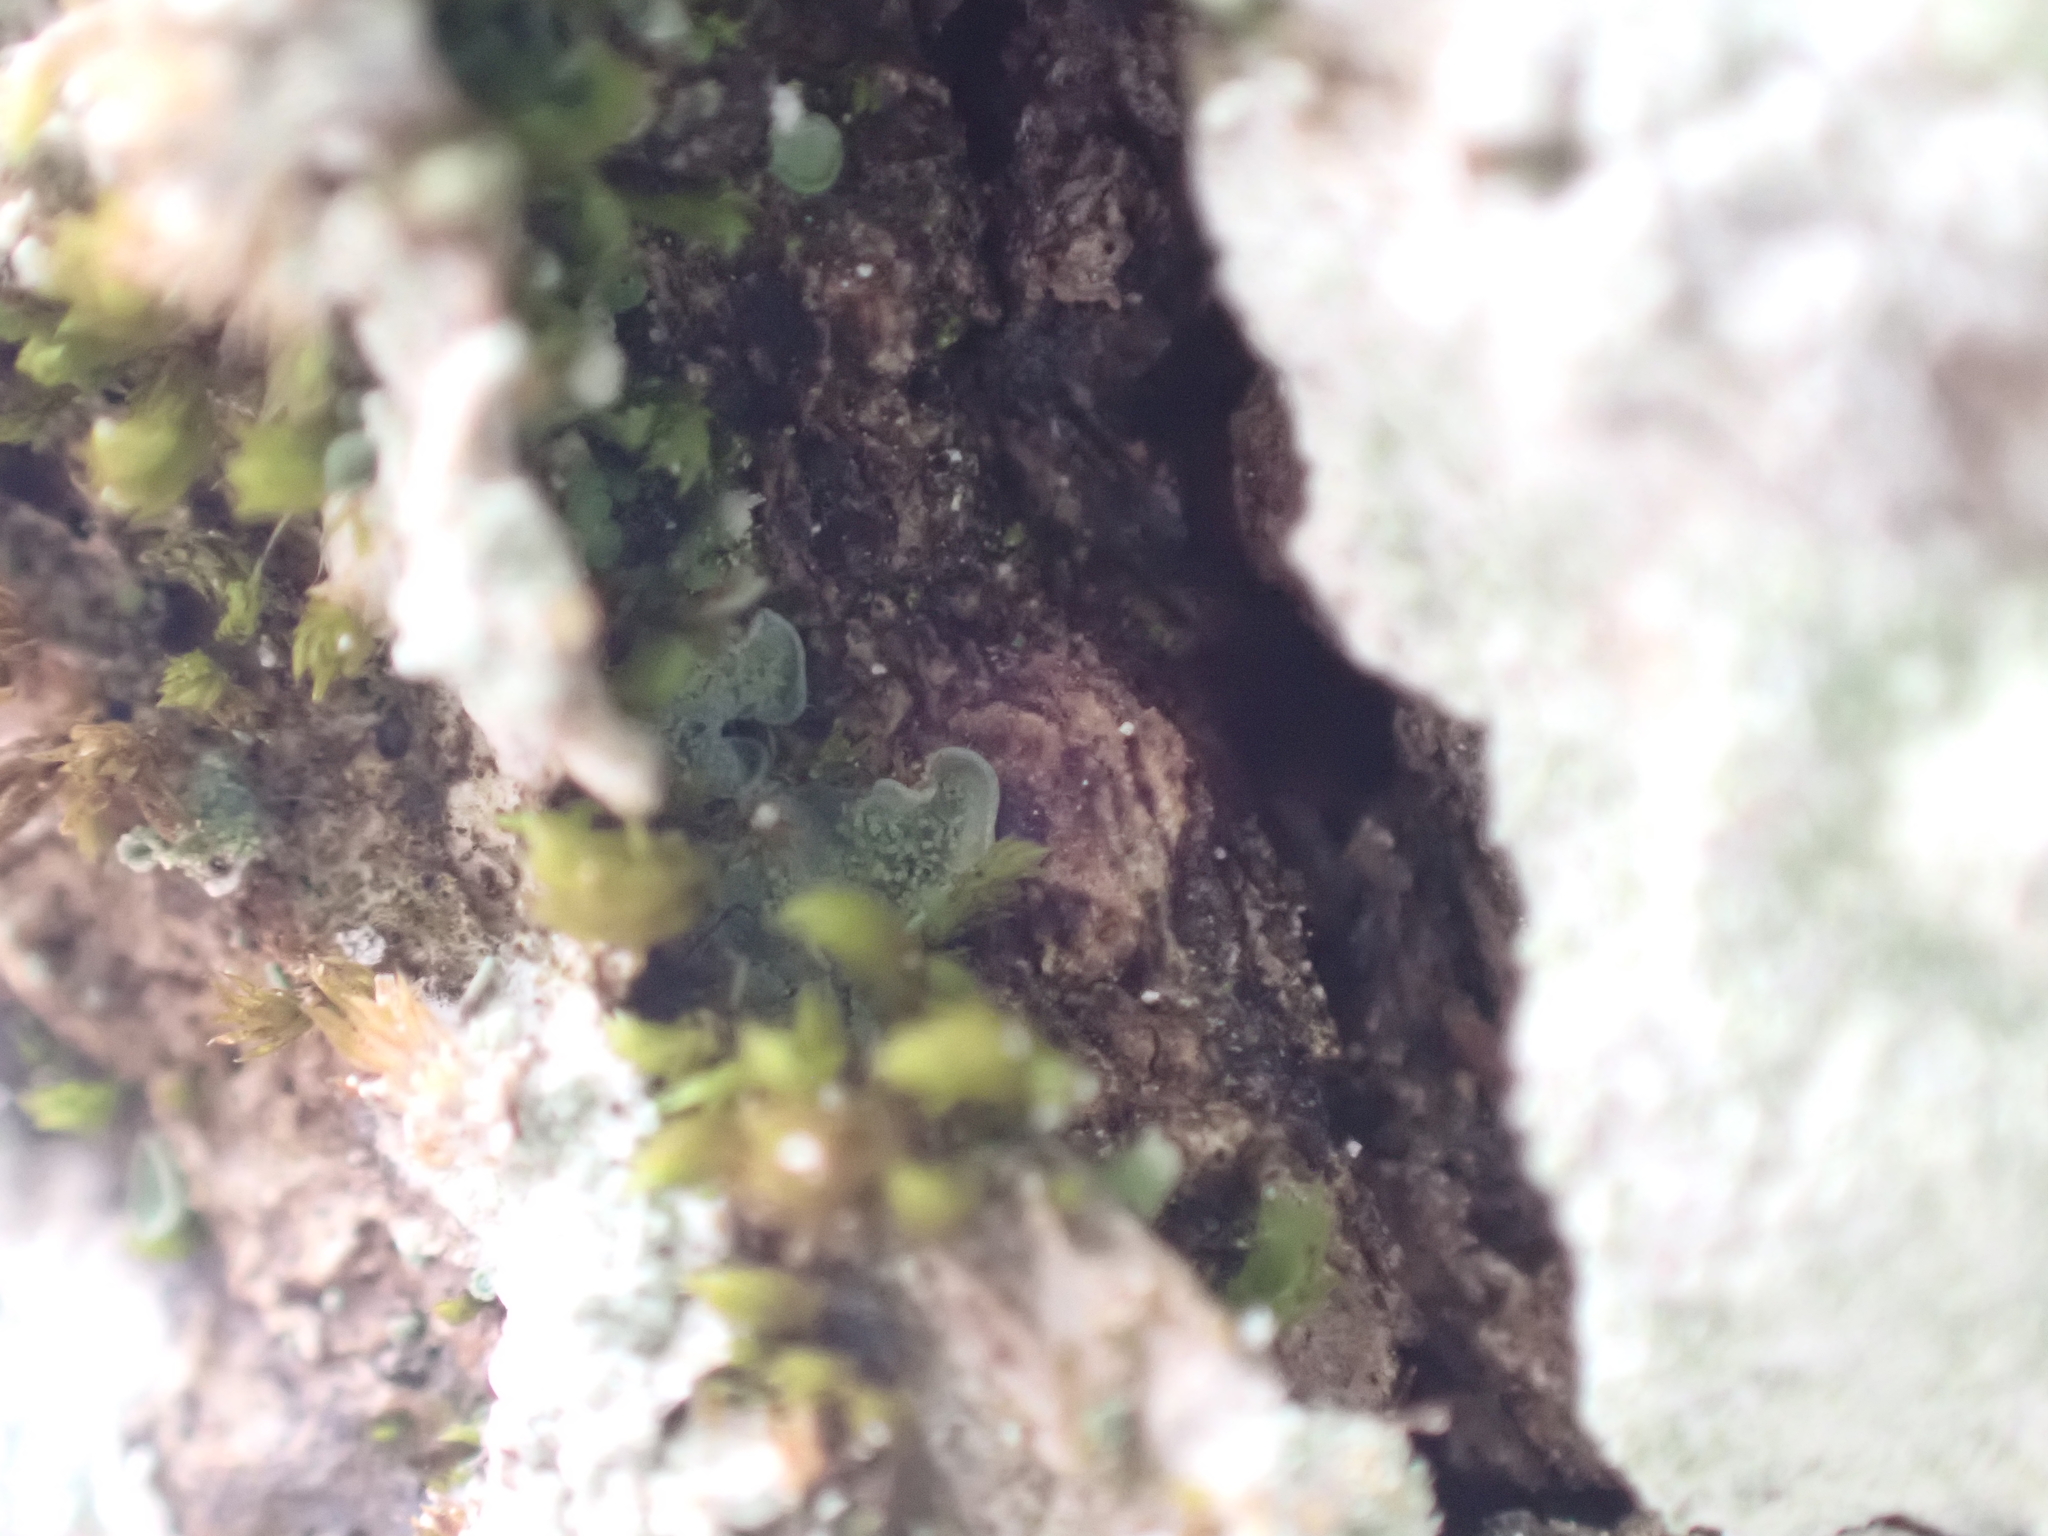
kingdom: Fungi
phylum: Ascomycota
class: Eurotiomycetes
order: Verrucariales
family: Verrucariaceae
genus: Normandina
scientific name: Normandina pulchella
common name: Elf ears lichen
